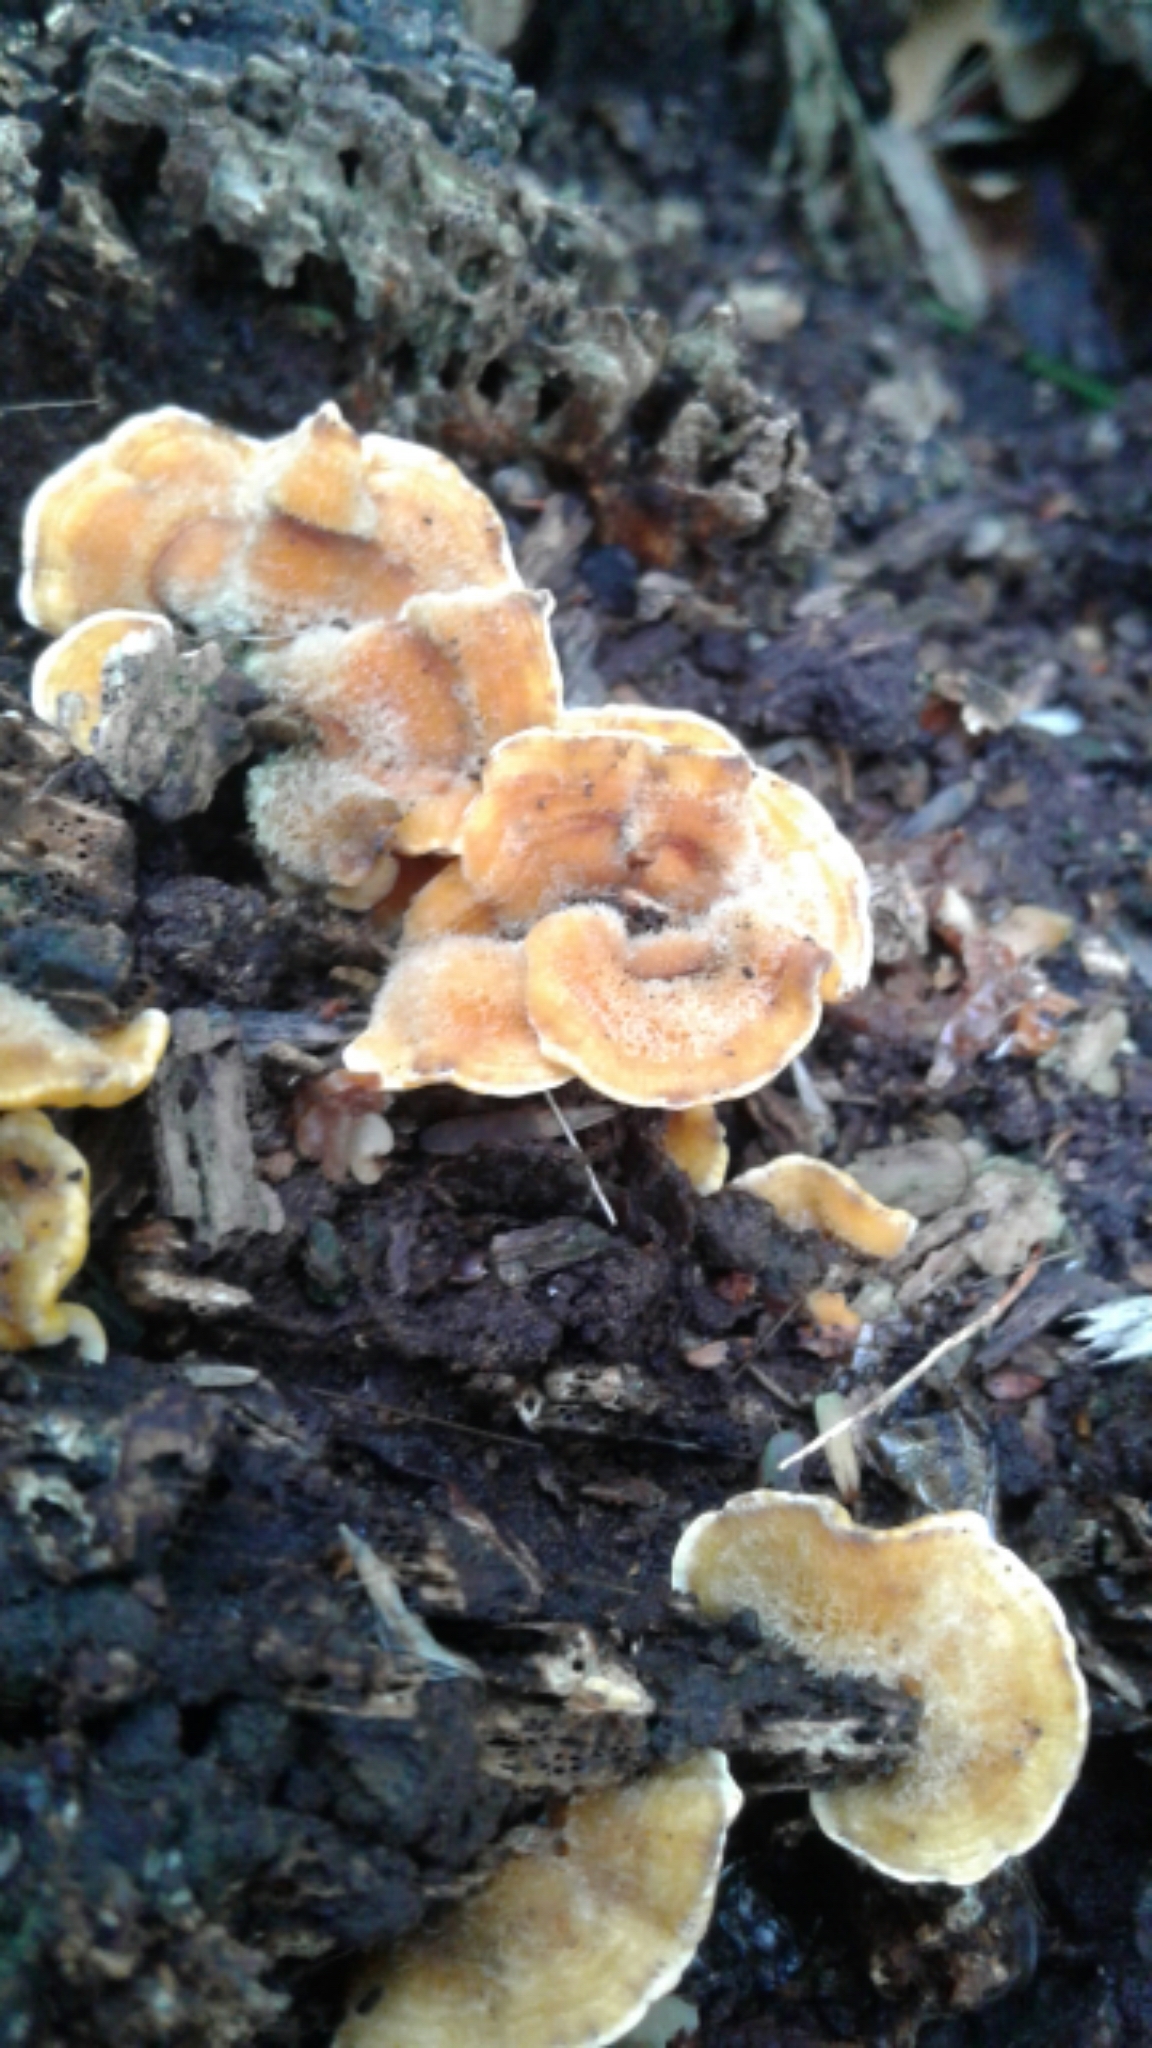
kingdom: Fungi
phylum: Basidiomycota
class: Agaricomycetes
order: Russulales
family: Stereaceae
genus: Stereum
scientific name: Stereum hirsutum
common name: Hairy curtain crust
